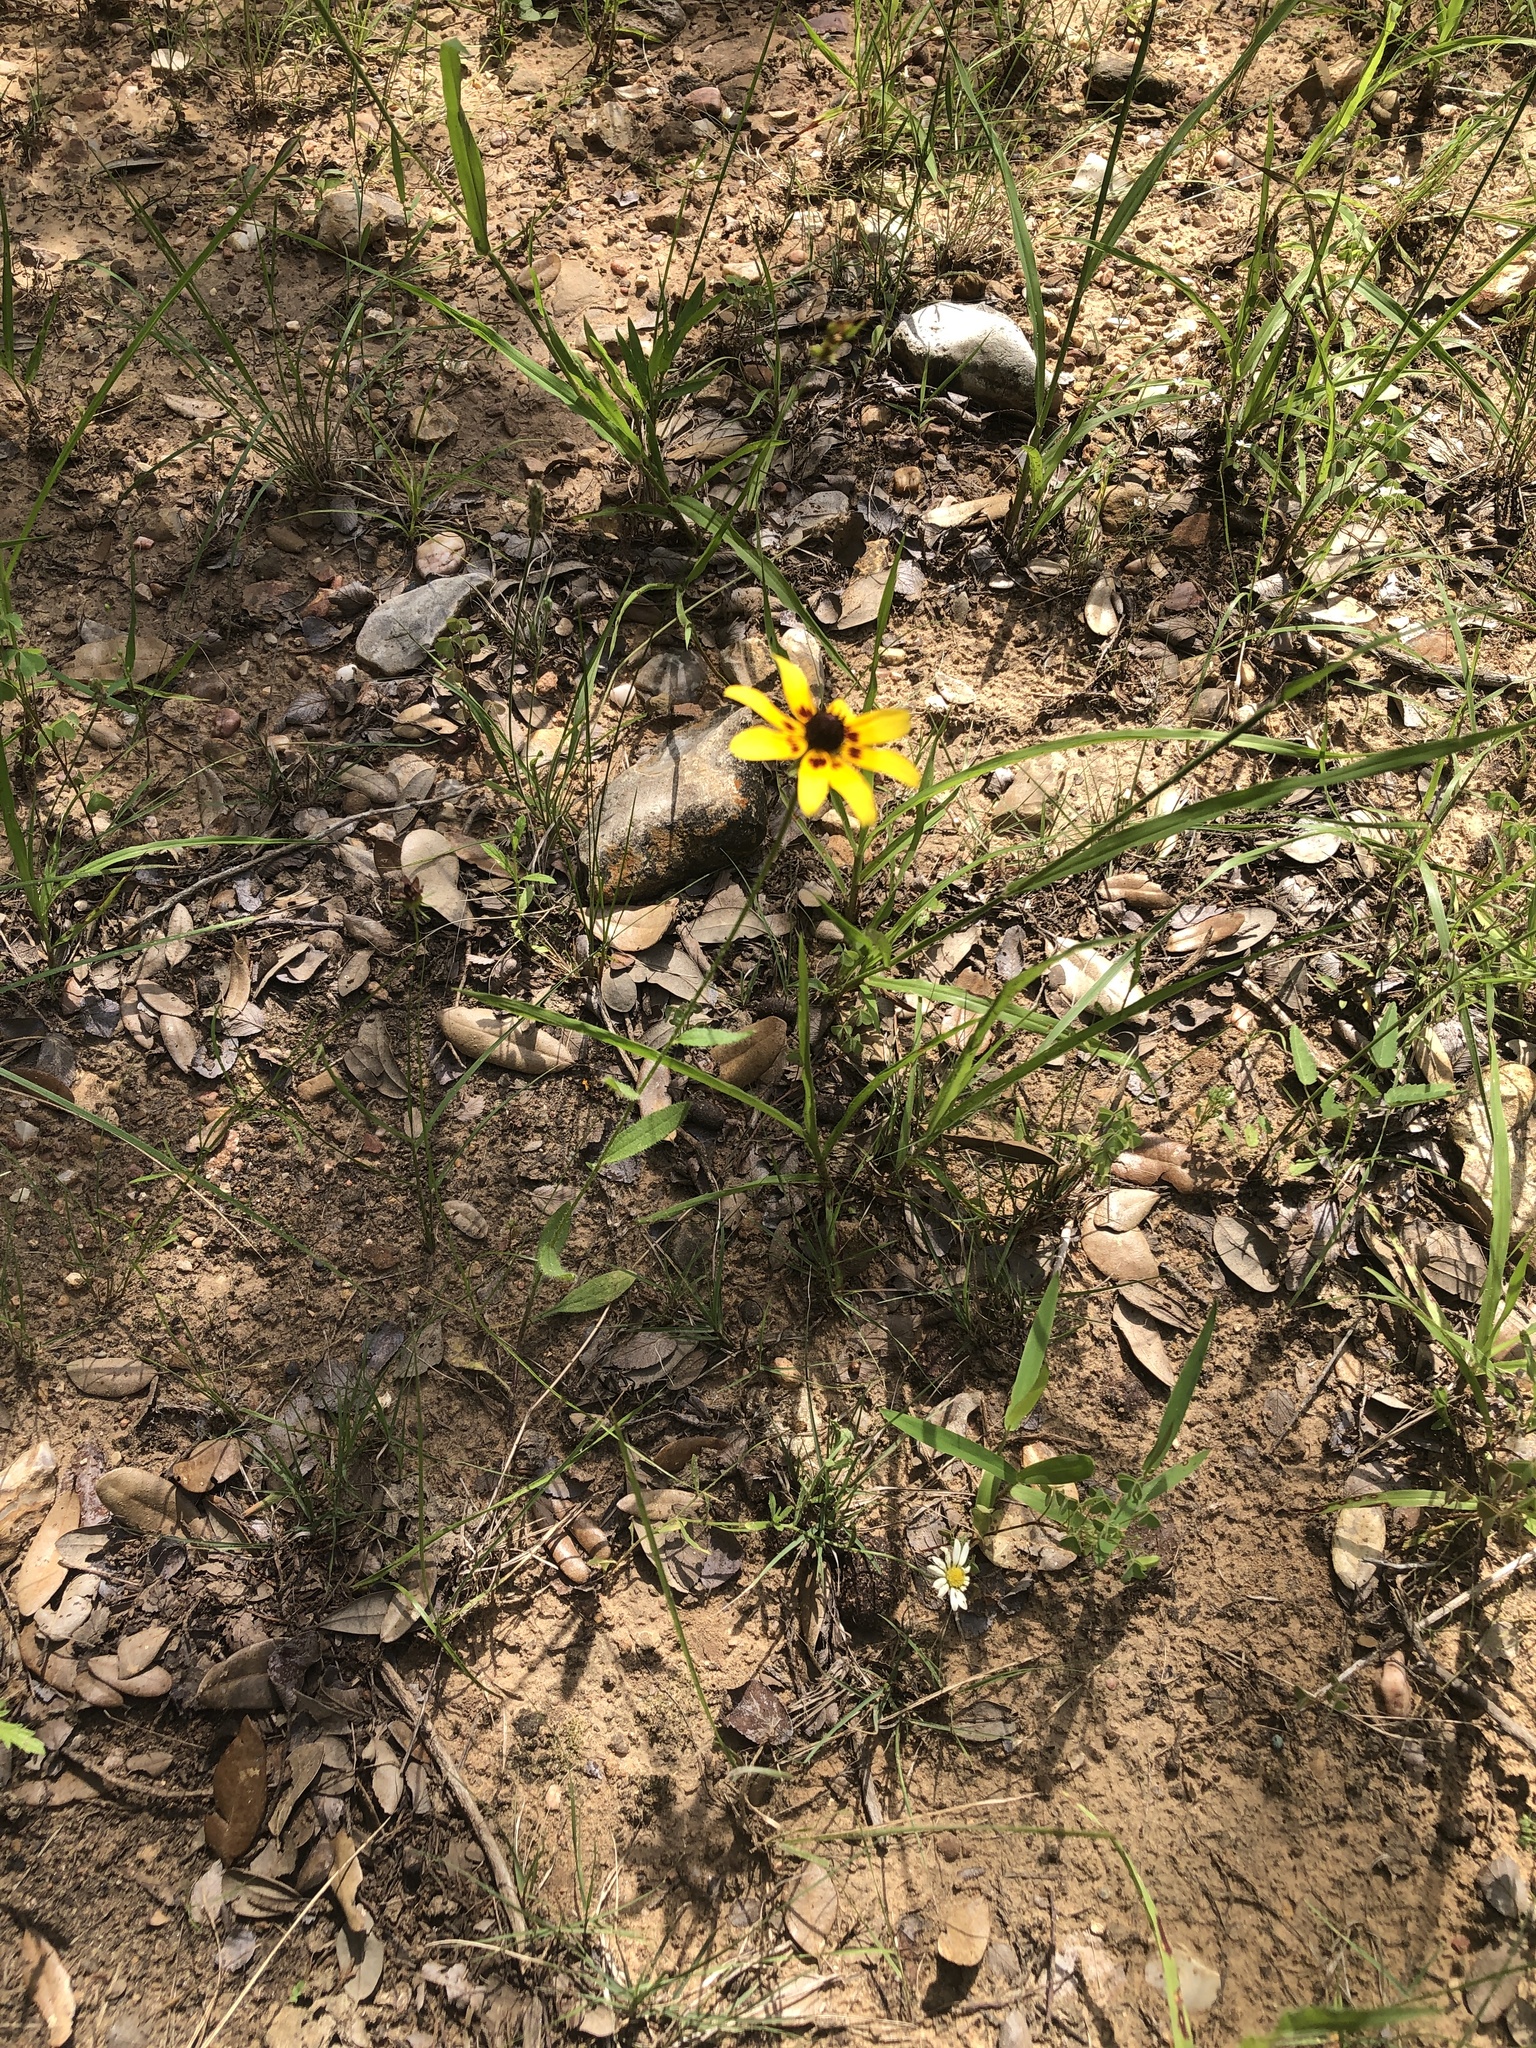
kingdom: Plantae
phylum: Tracheophyta
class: Magnoliopsida
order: Asterales
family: Asteraceae
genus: Rudbeckia
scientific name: Rudbeckia hirta
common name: Black-eyed-susan
